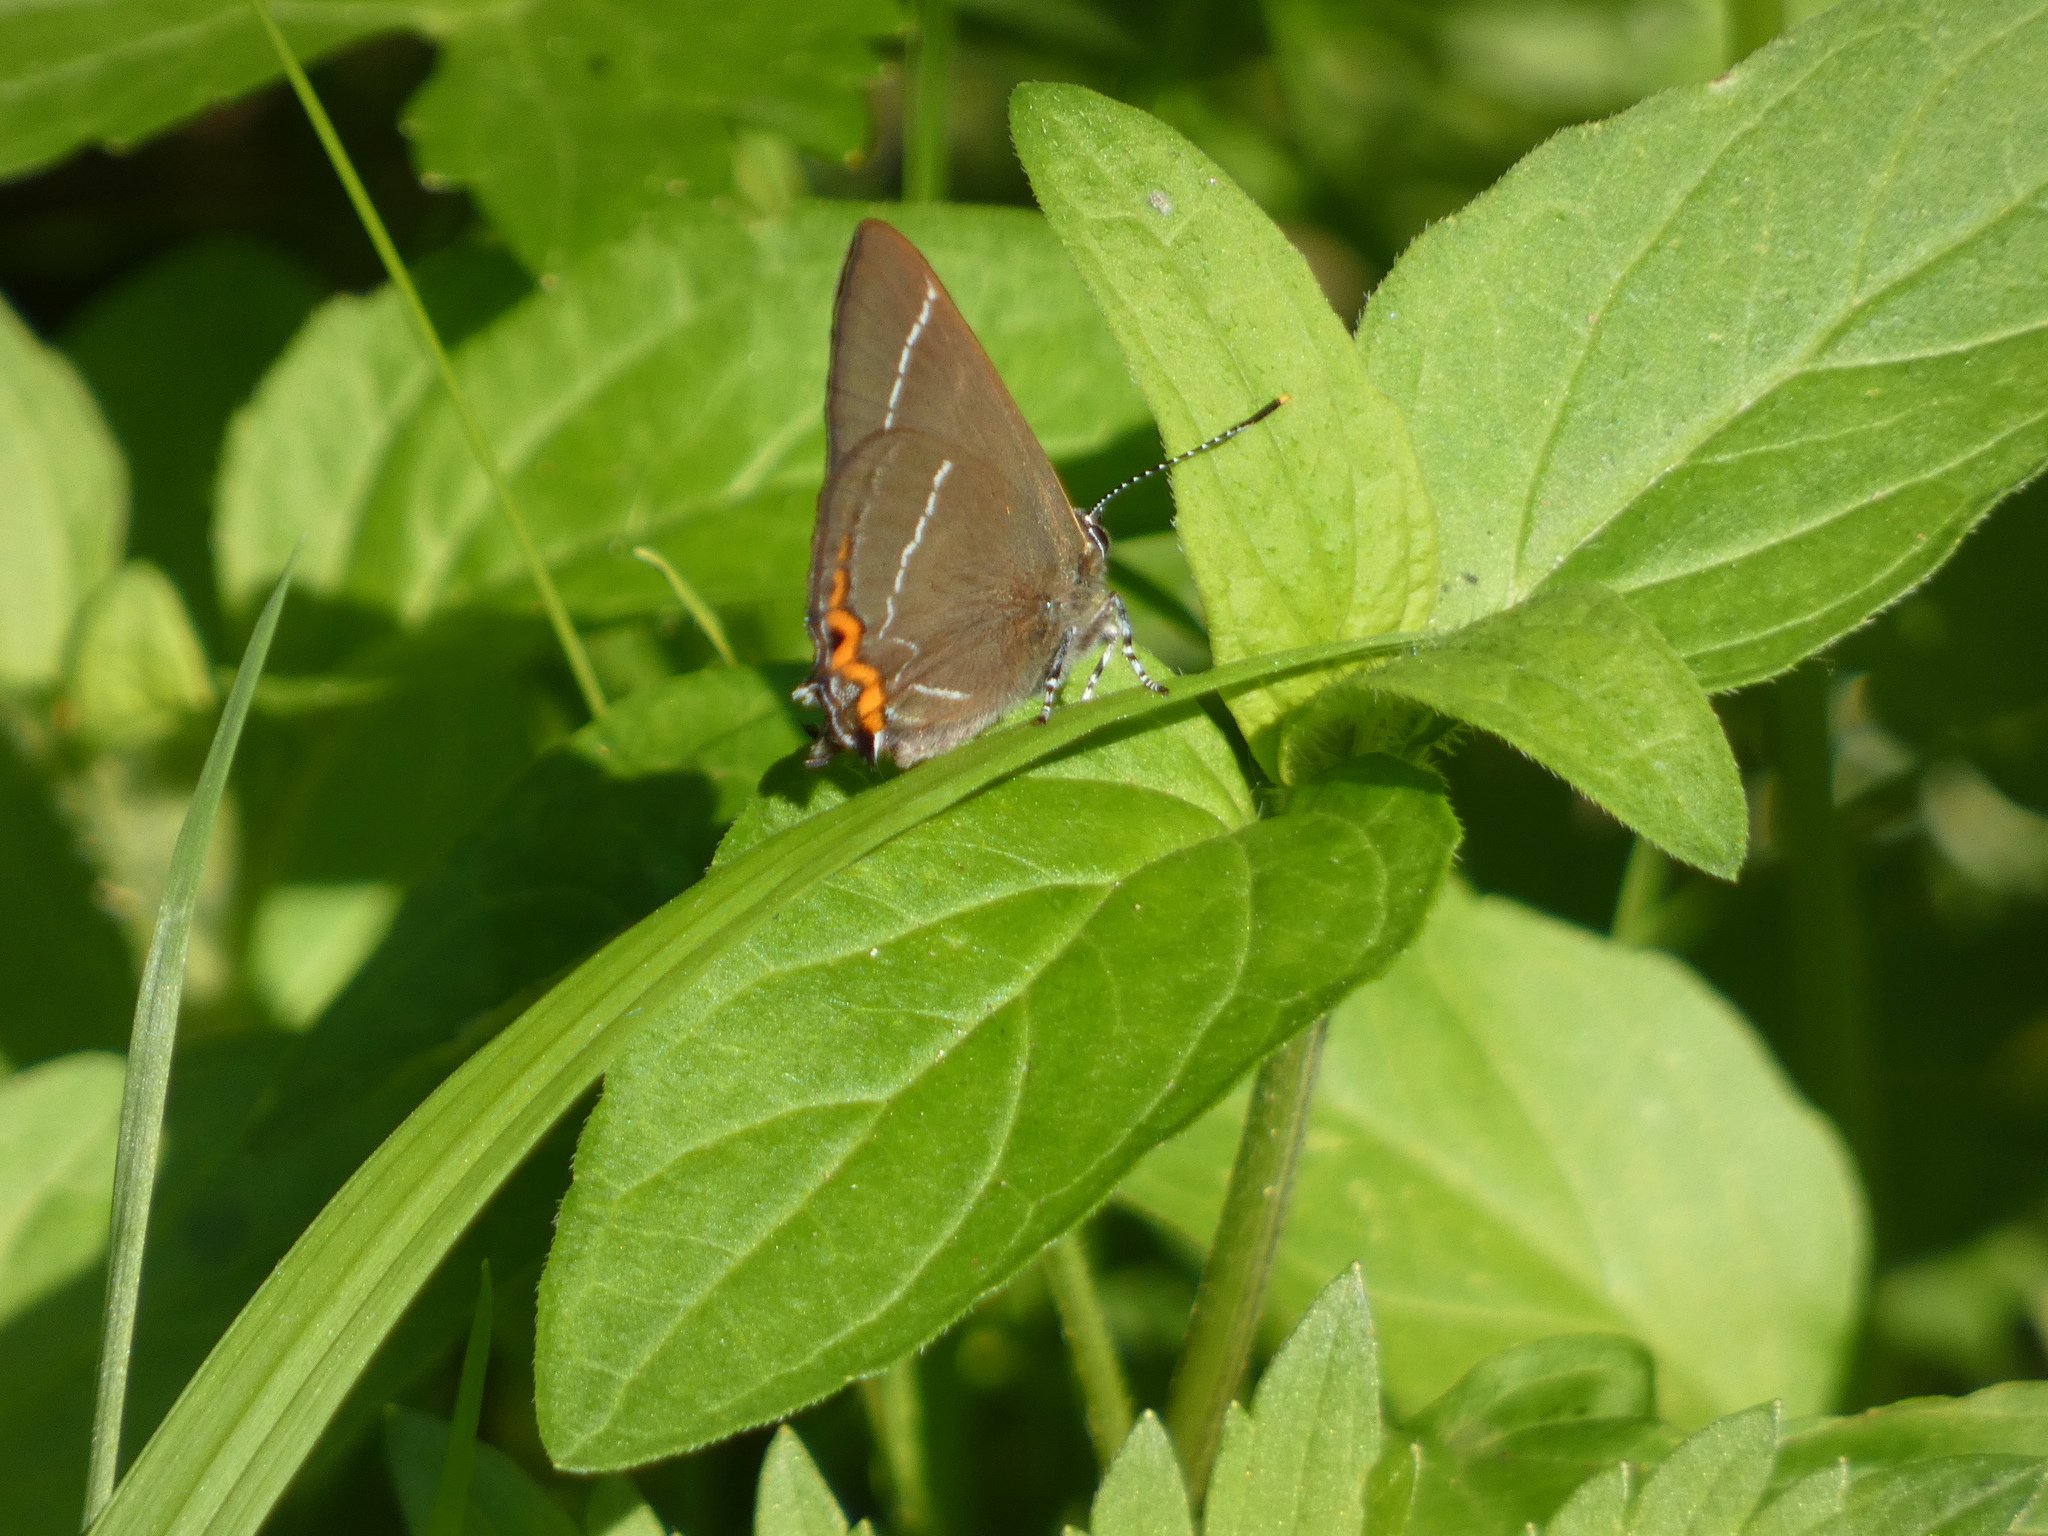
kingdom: Animalia
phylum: Arthropoda
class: Insecta
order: Lepidoptera
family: Lycaenidae
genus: Satyrium
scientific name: Satyrium w-album
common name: White-letter hairstreak
